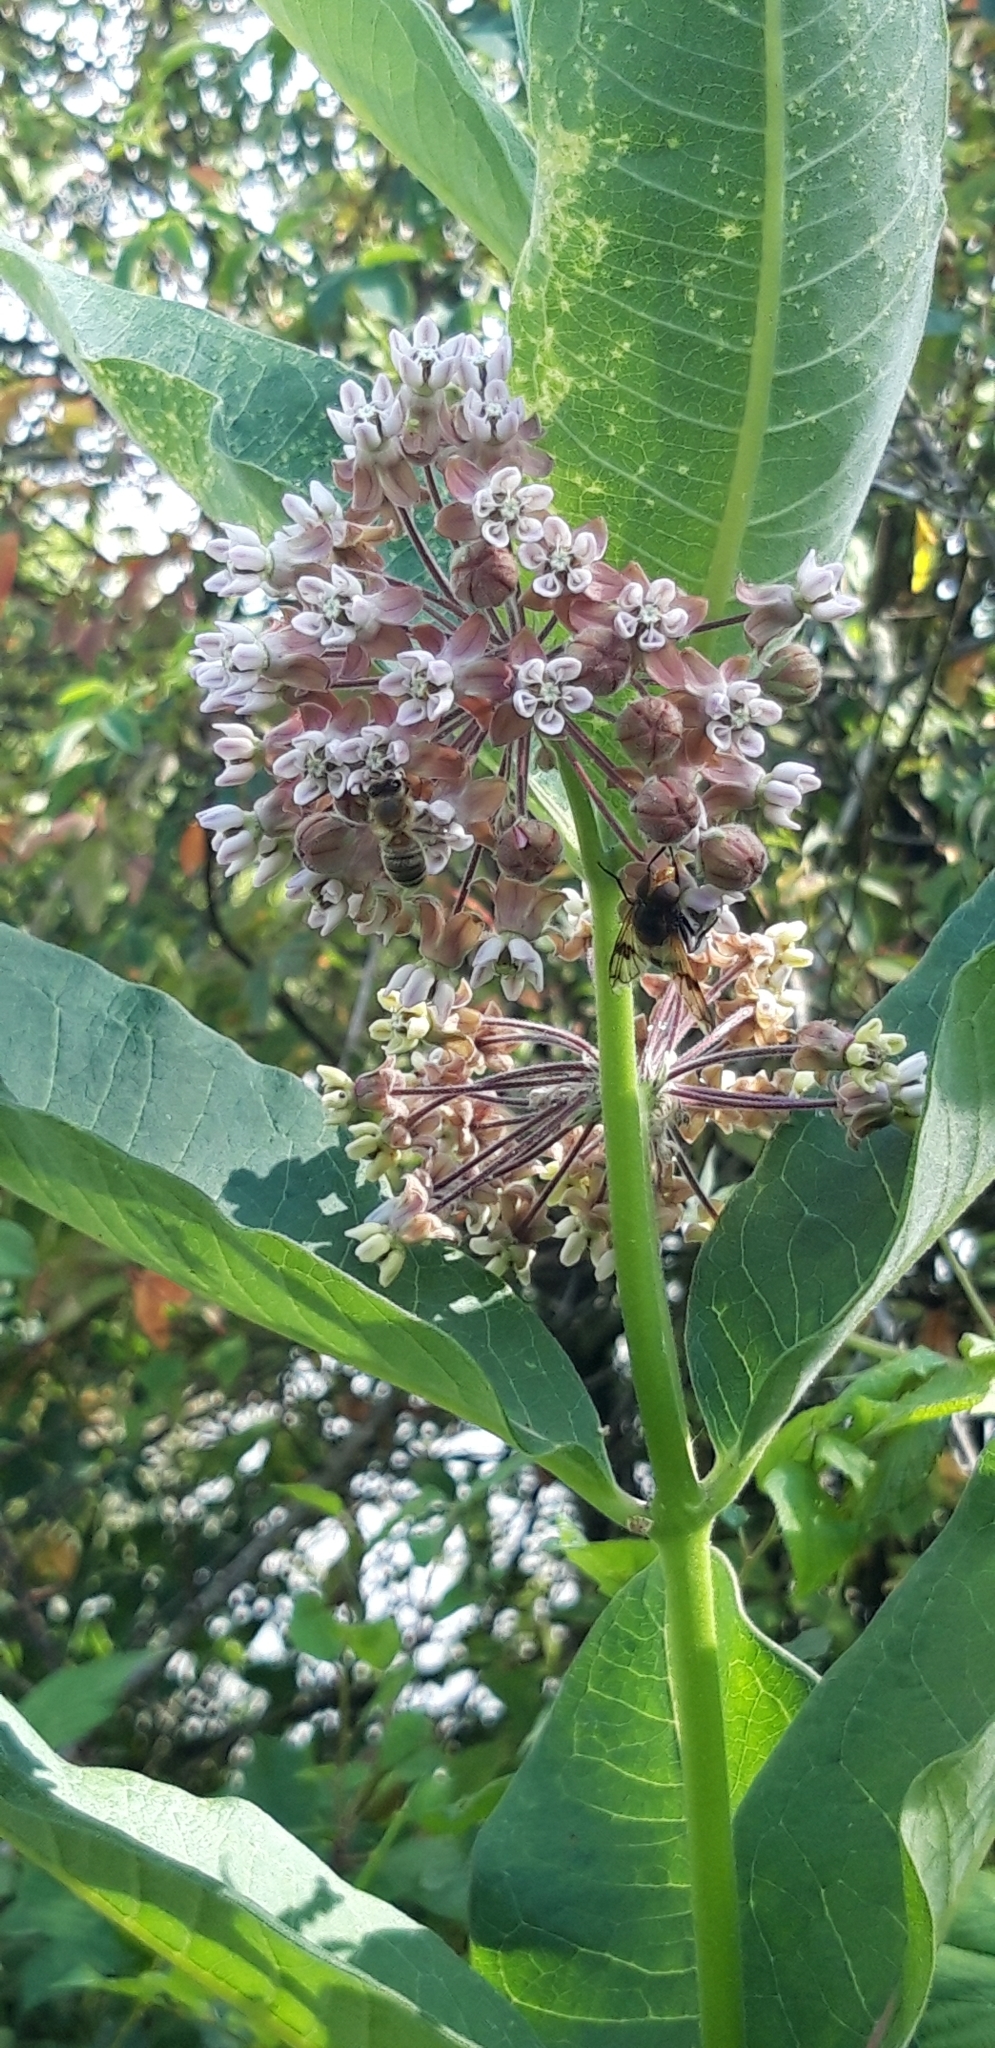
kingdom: Plantae
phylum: Tracheophyta
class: Magnoliopsida
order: Gentianales
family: Apocynaceae
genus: Asclepias
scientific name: Asclepias syriaca
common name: Common milkweed
